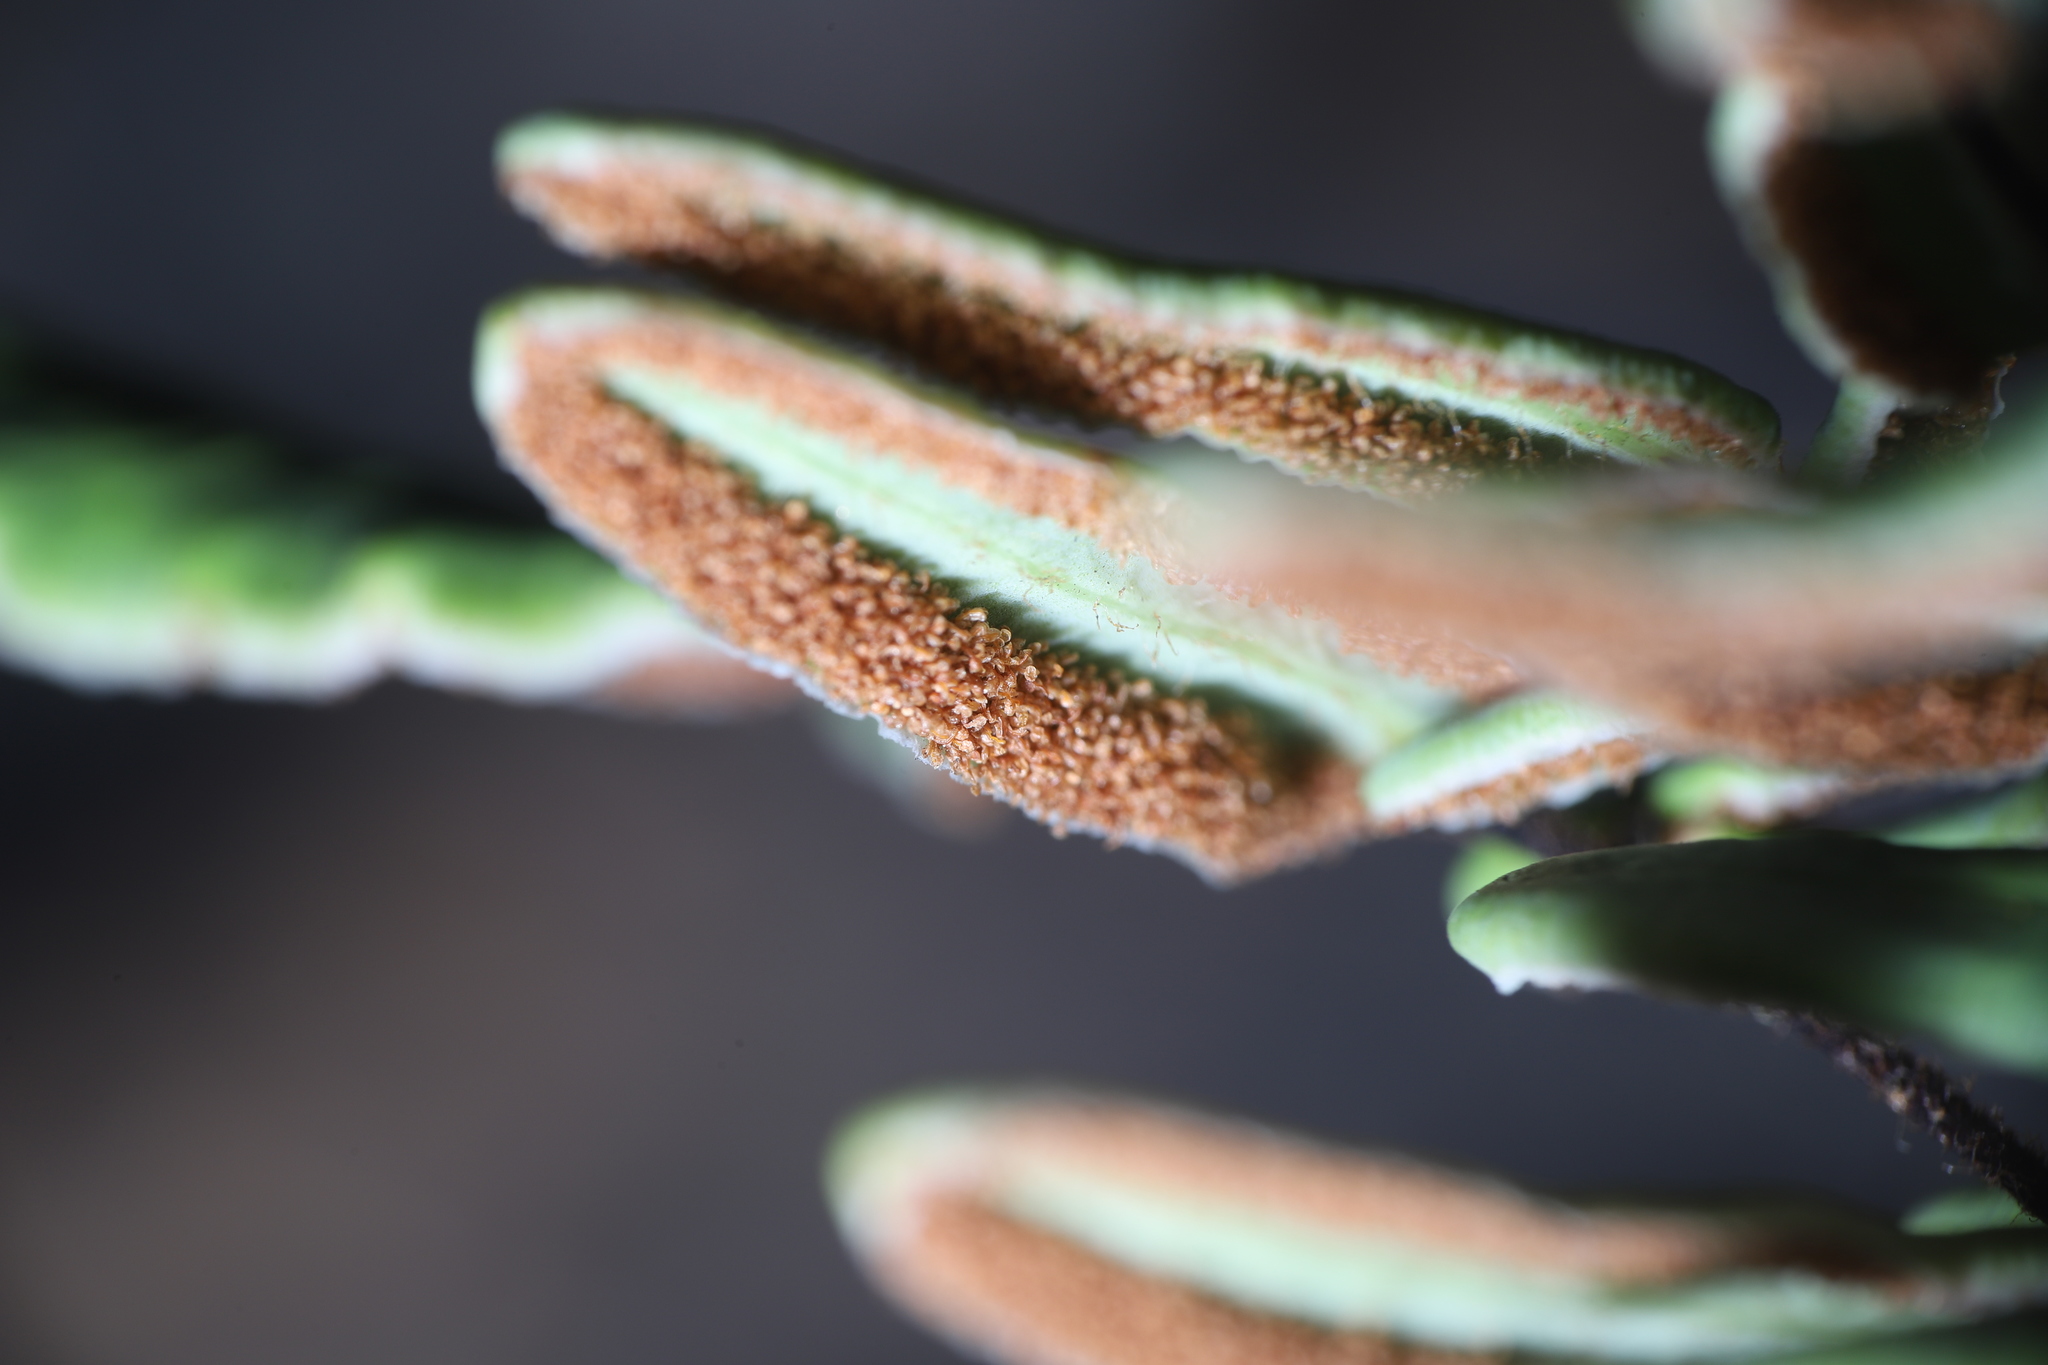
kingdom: Plantae
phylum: Tracheophyta
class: Polypodiopsida
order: Polypodiales
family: Pteridaceae
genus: Pellaea
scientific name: Pellaea atropurpurea
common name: Hairy cliffbrake
